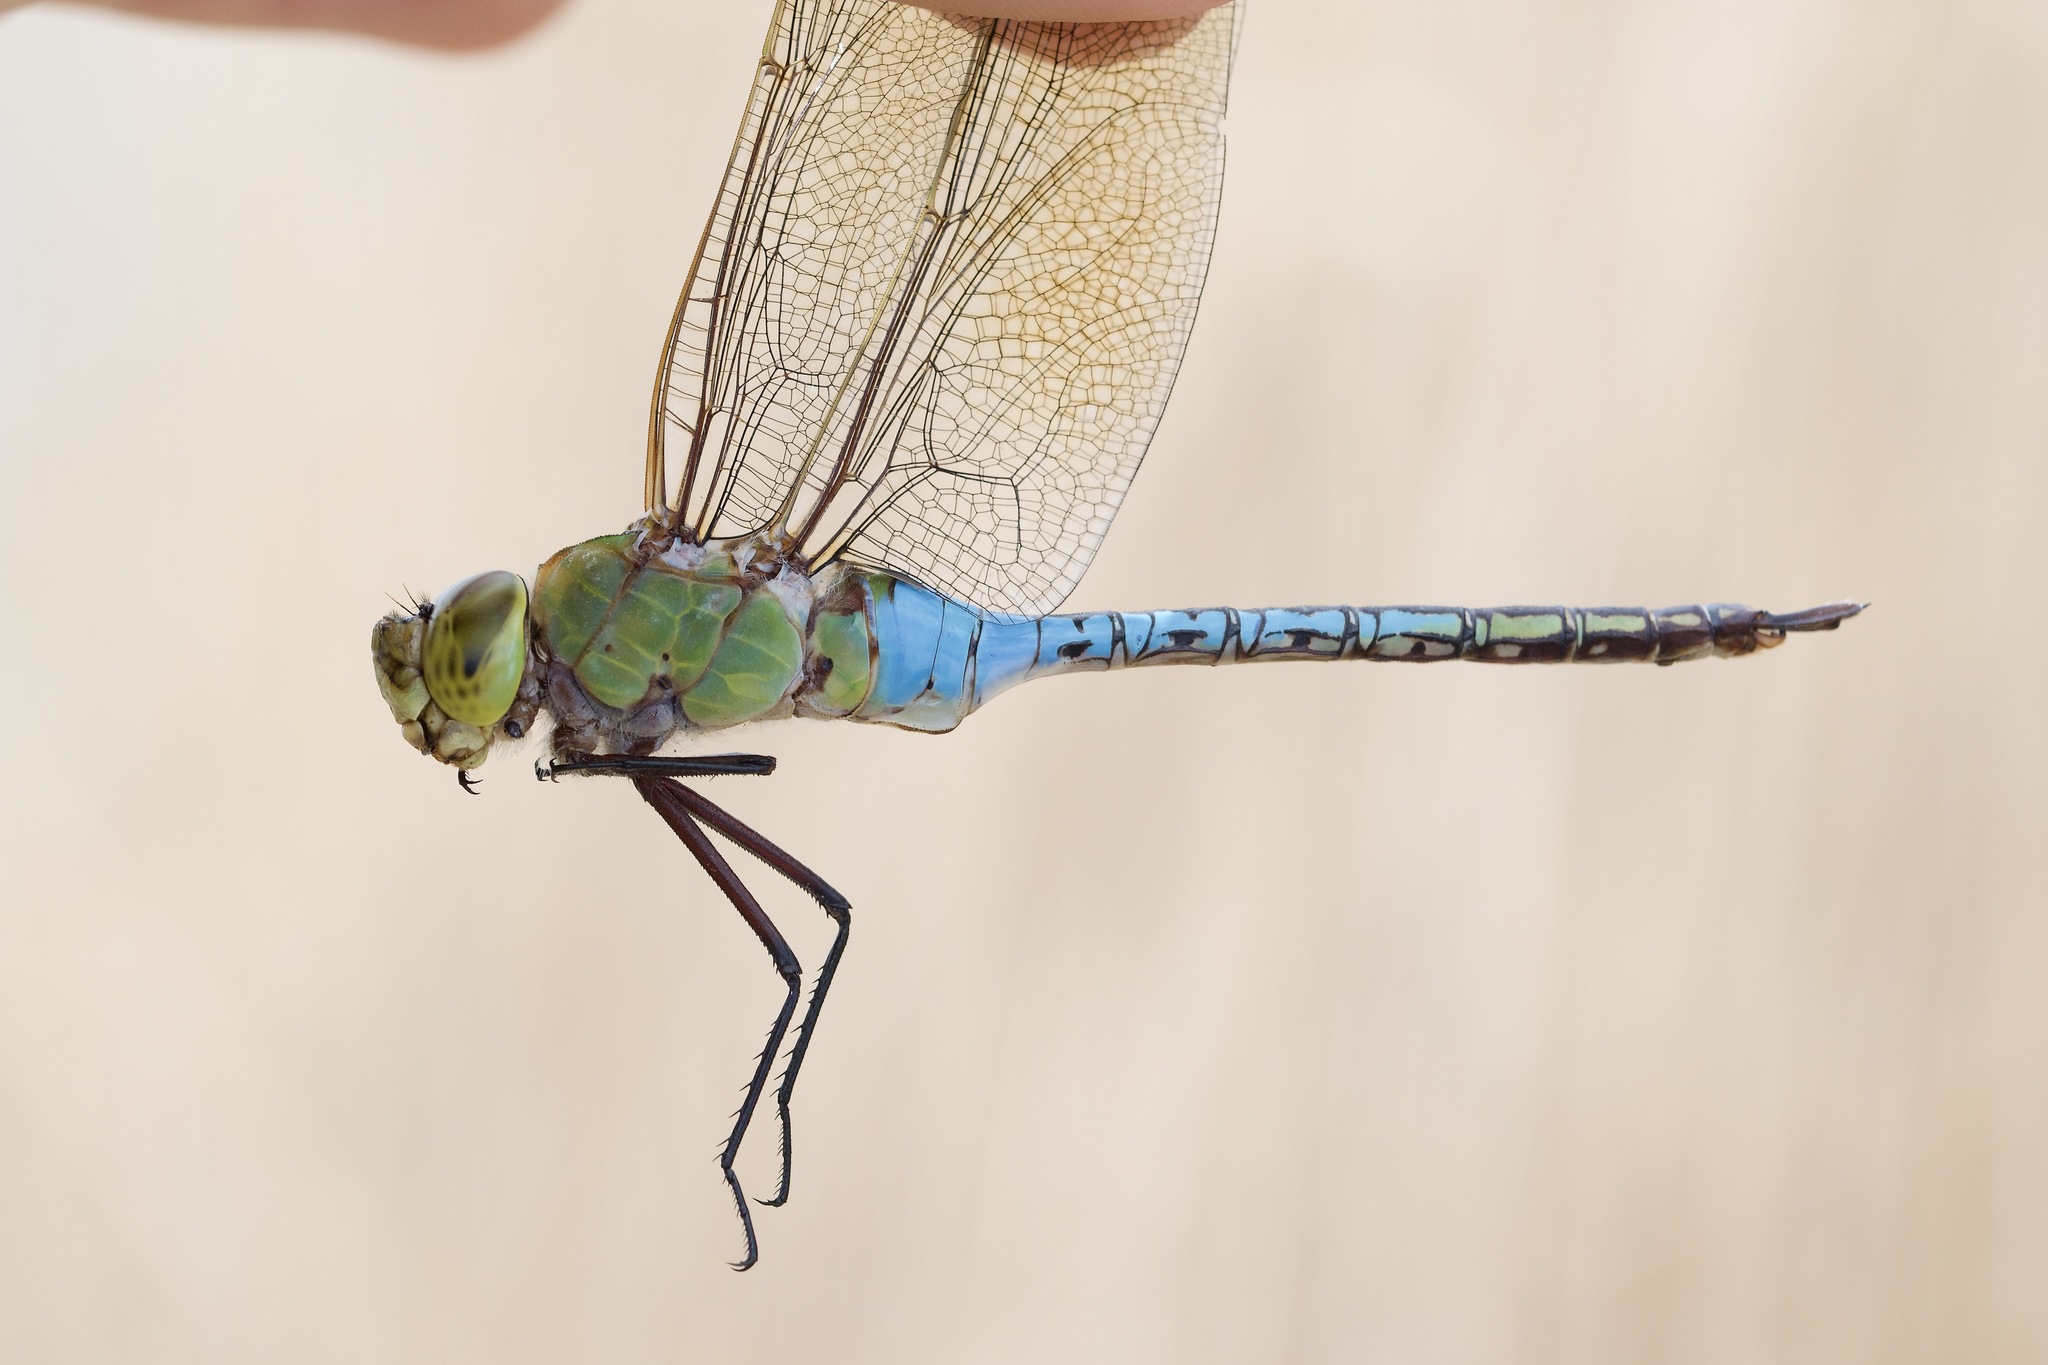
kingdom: Animalia
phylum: Arthropoda
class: Insecta
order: Odonata
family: Aeshnidae
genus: Anax
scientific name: Anax junius
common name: Common green darner
